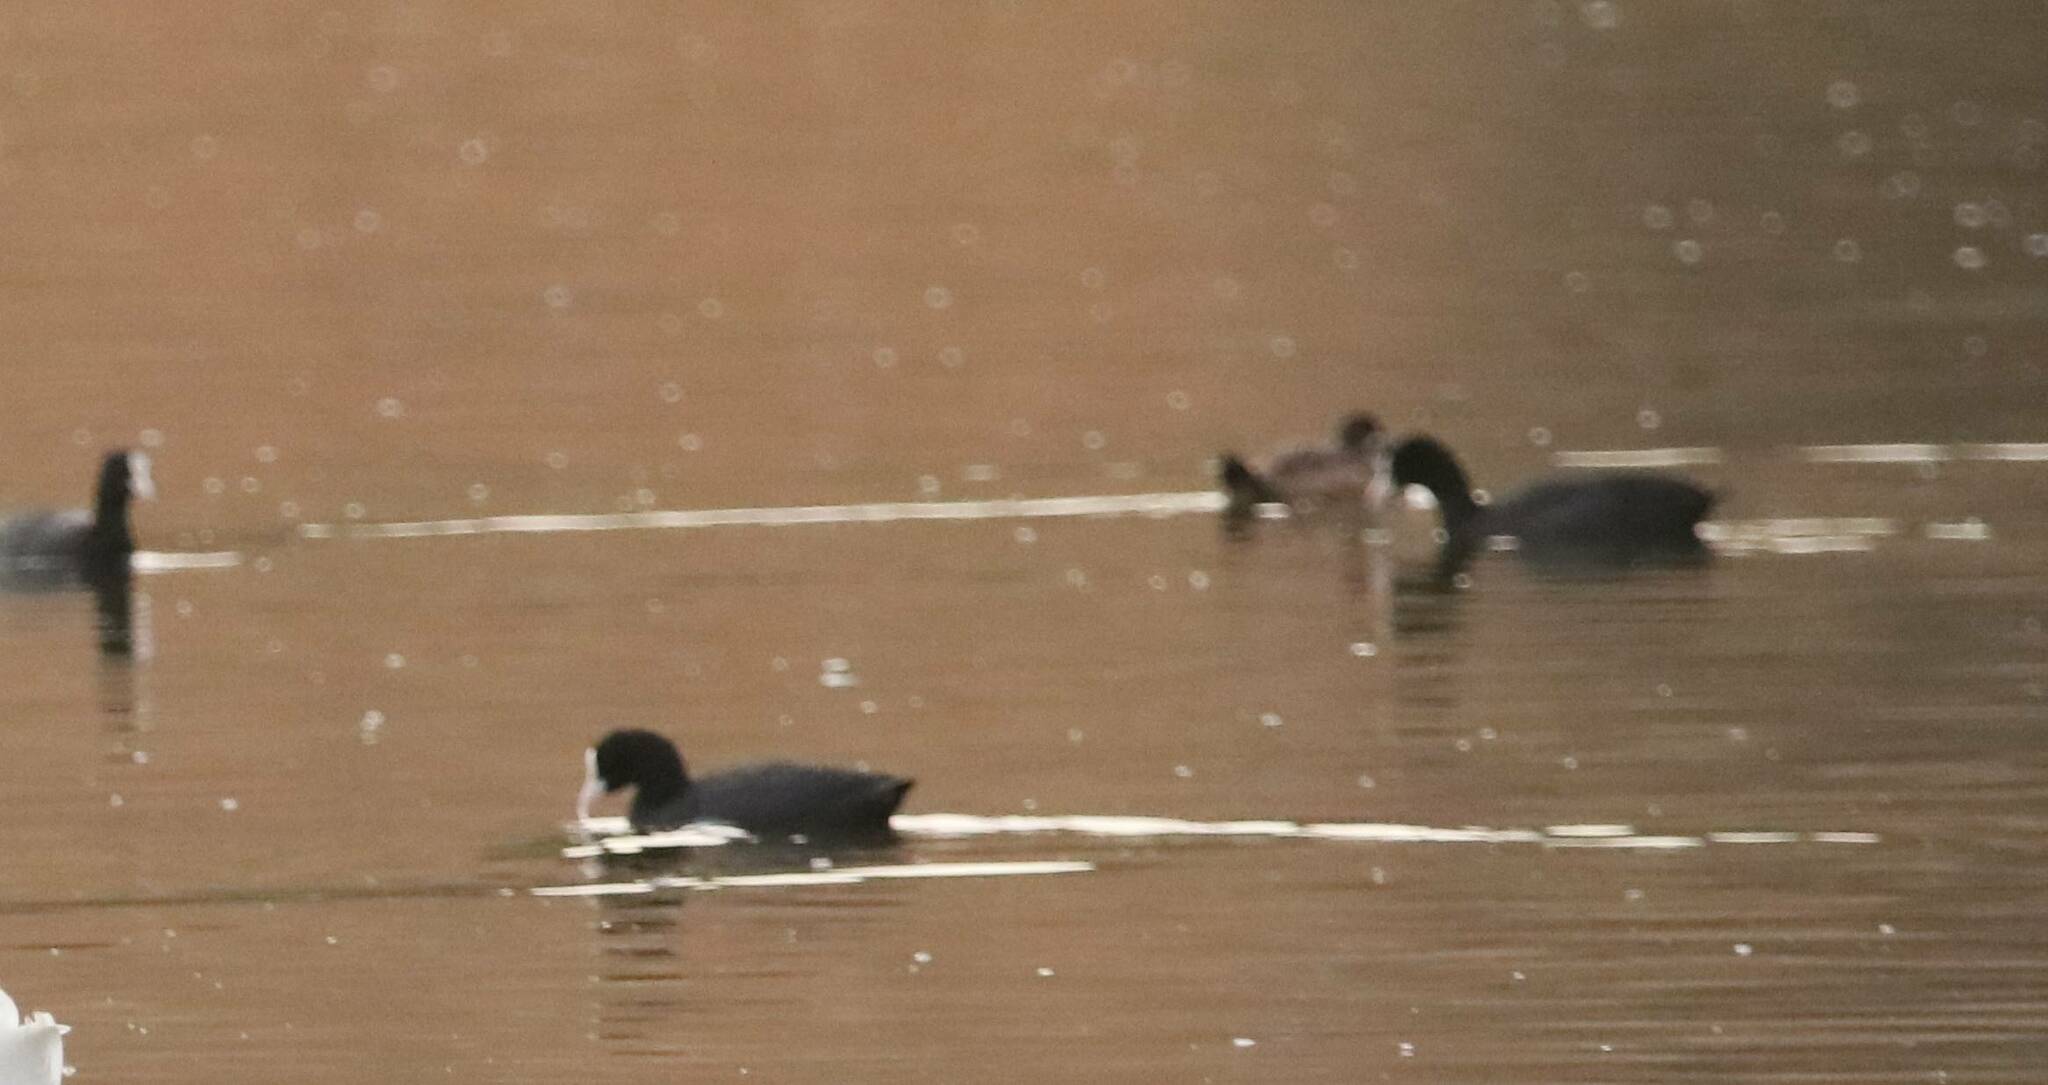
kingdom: Animalia
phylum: Chordata
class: Aves
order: Gruiformes
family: Rallidae
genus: Fulica
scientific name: Fulica atra
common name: Eurasian coot
